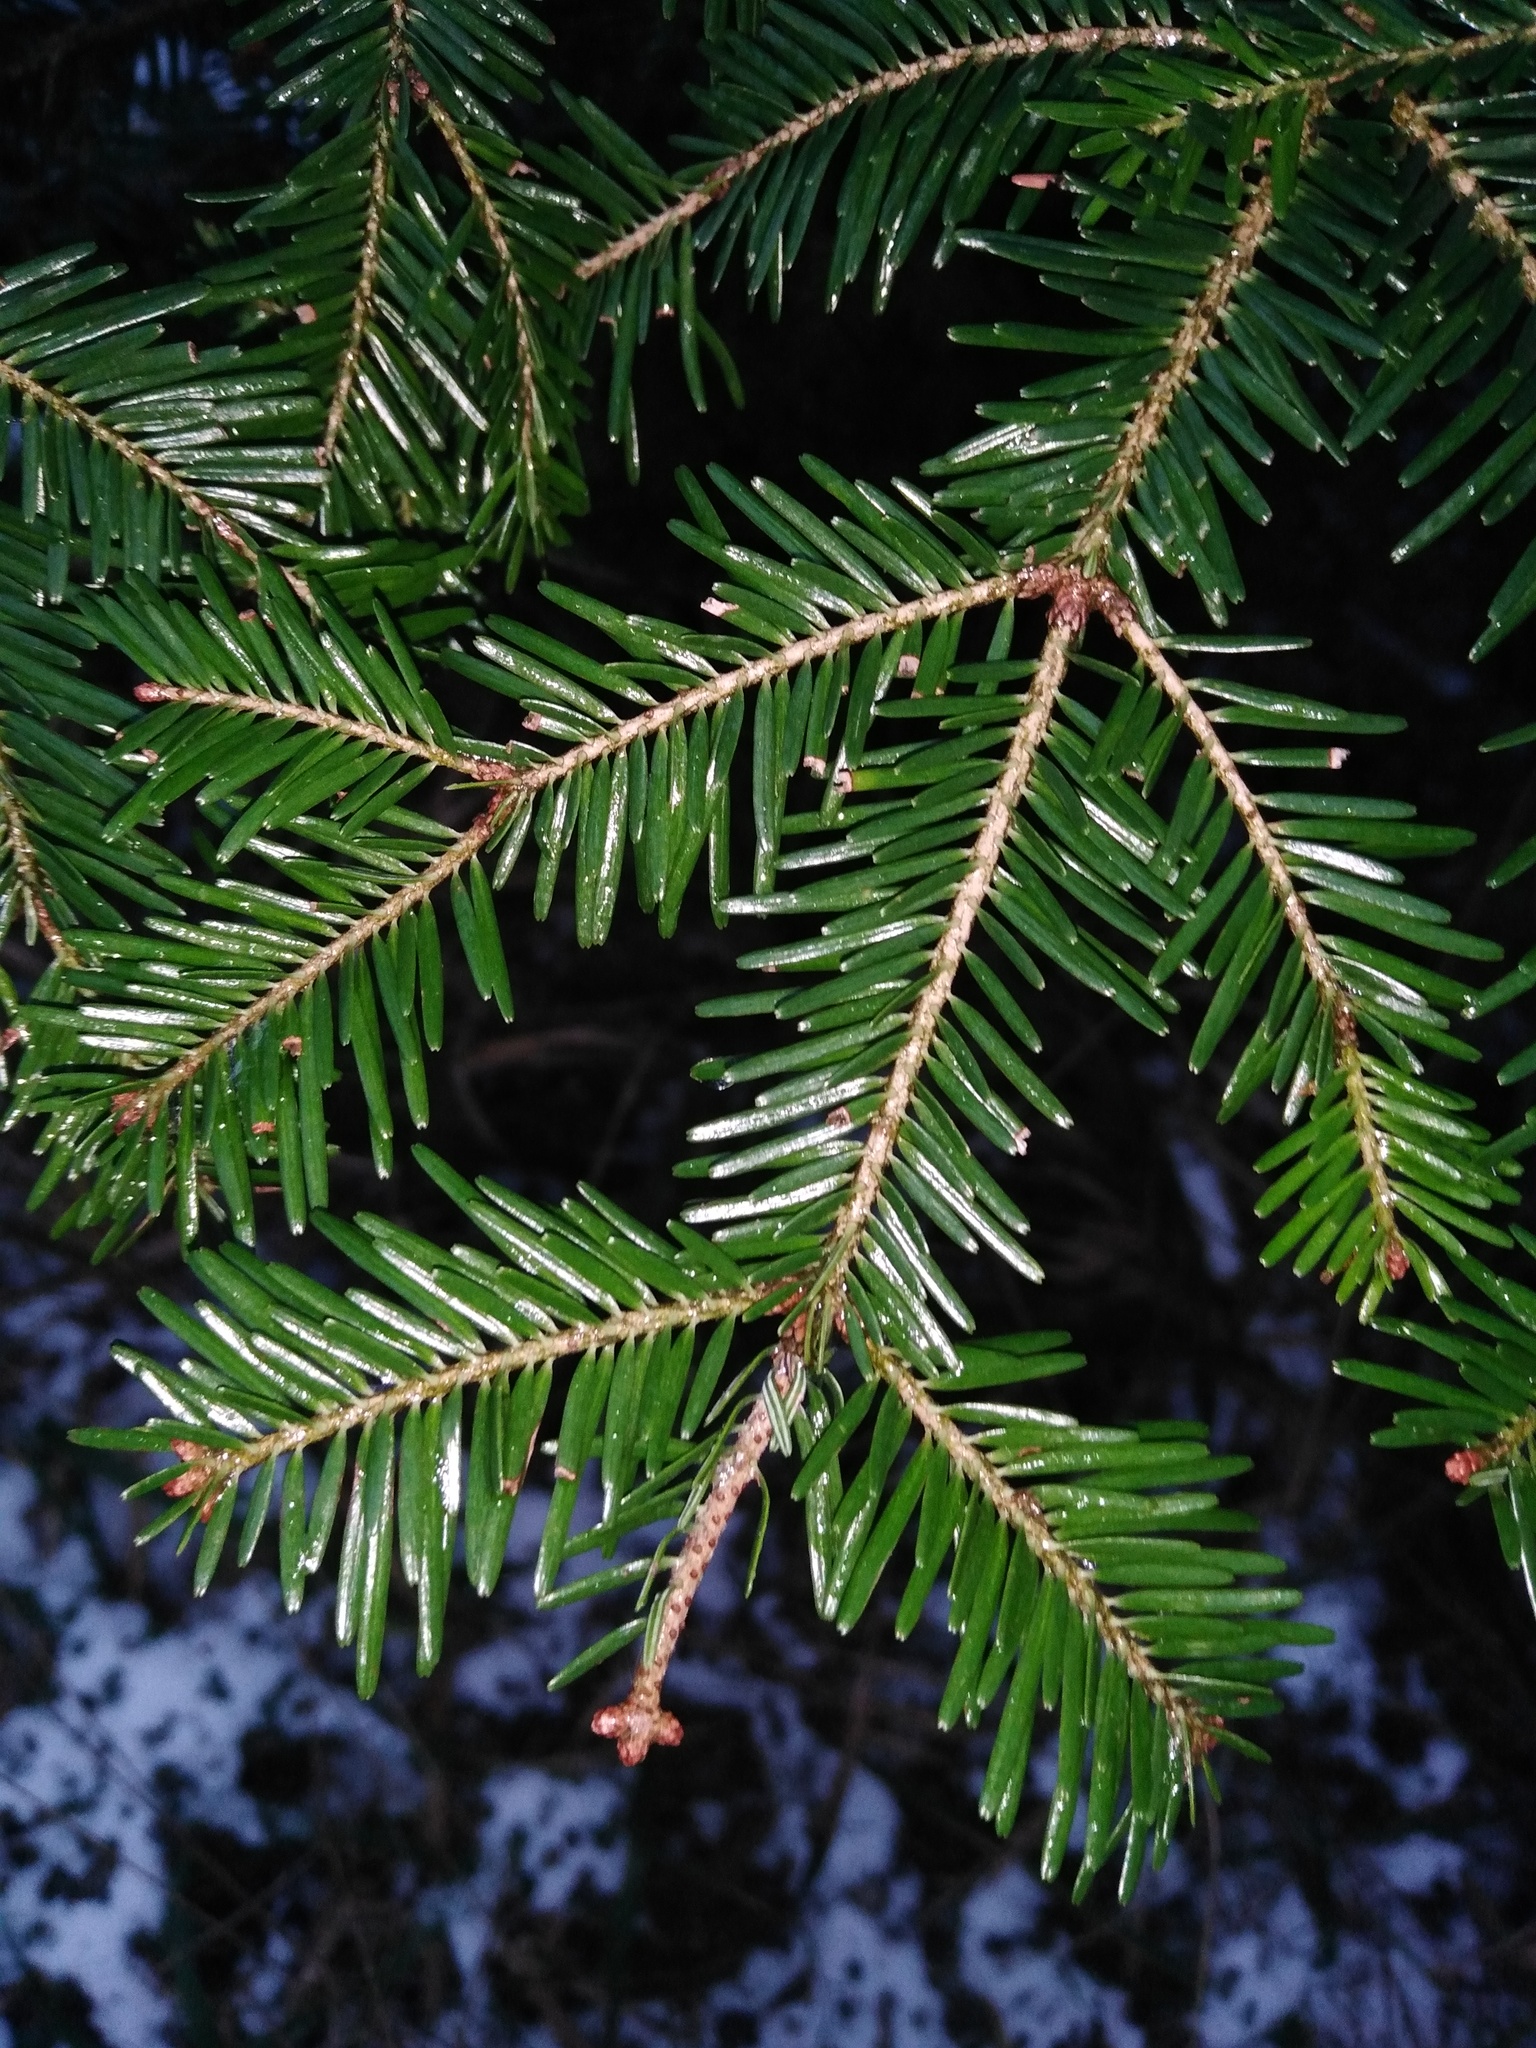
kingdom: Plantae
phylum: Tracheophyta
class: Pinopsida
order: Pinales
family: Pinaceae
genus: Abies
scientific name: Abies alba
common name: Silver fir
